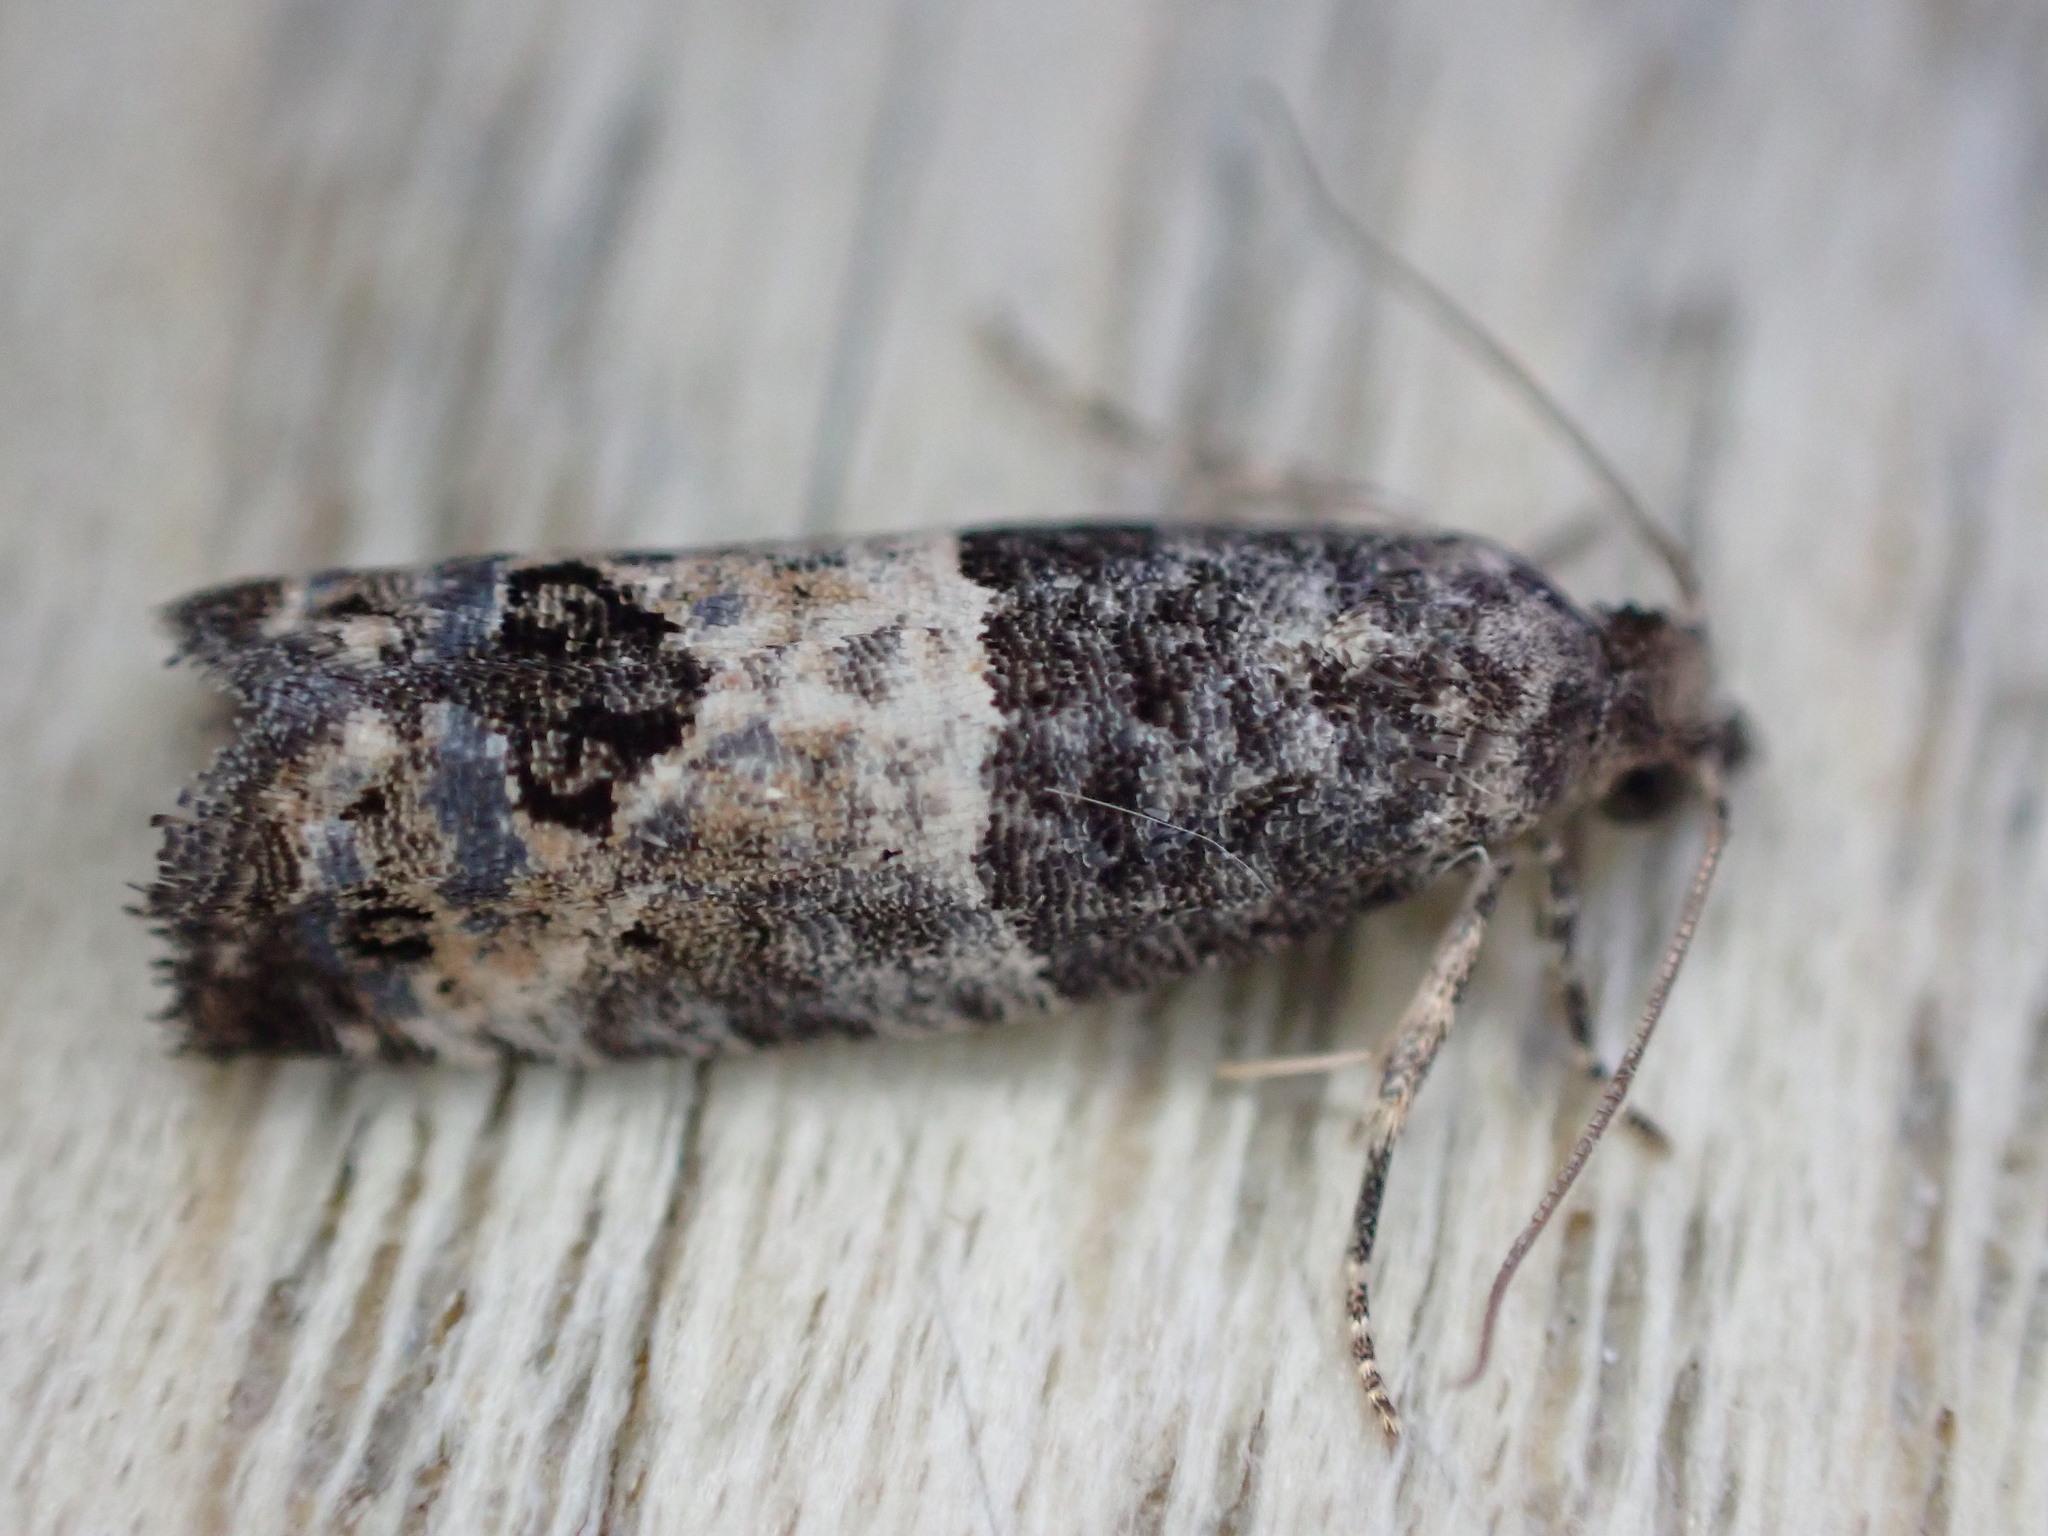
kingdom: Animalia
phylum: Arthropoda
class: Insecta
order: Lepidoptera
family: Tortricidae
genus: Spilonota
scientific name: Spilonota ocellana
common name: Bud moth
